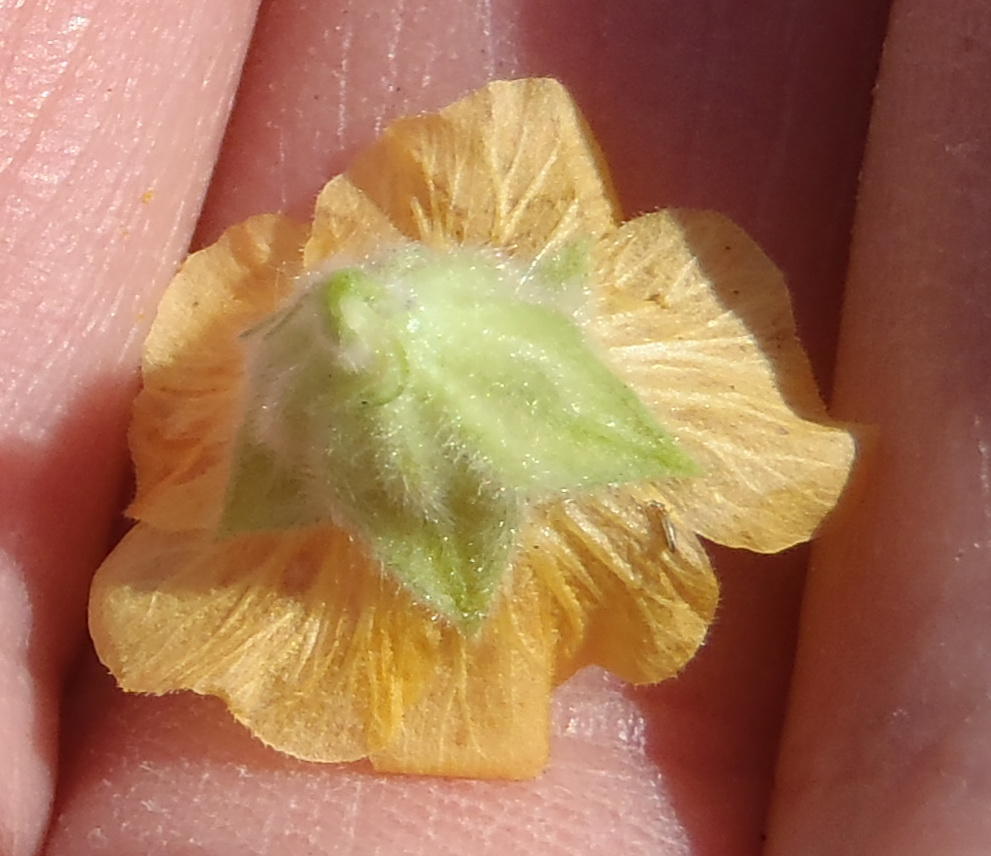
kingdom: Plantae
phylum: Tracheophyta
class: Magnoliopsida
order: Malvales
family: Malvaceae
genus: Sida
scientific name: Sida cordifolia
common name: Ilima
